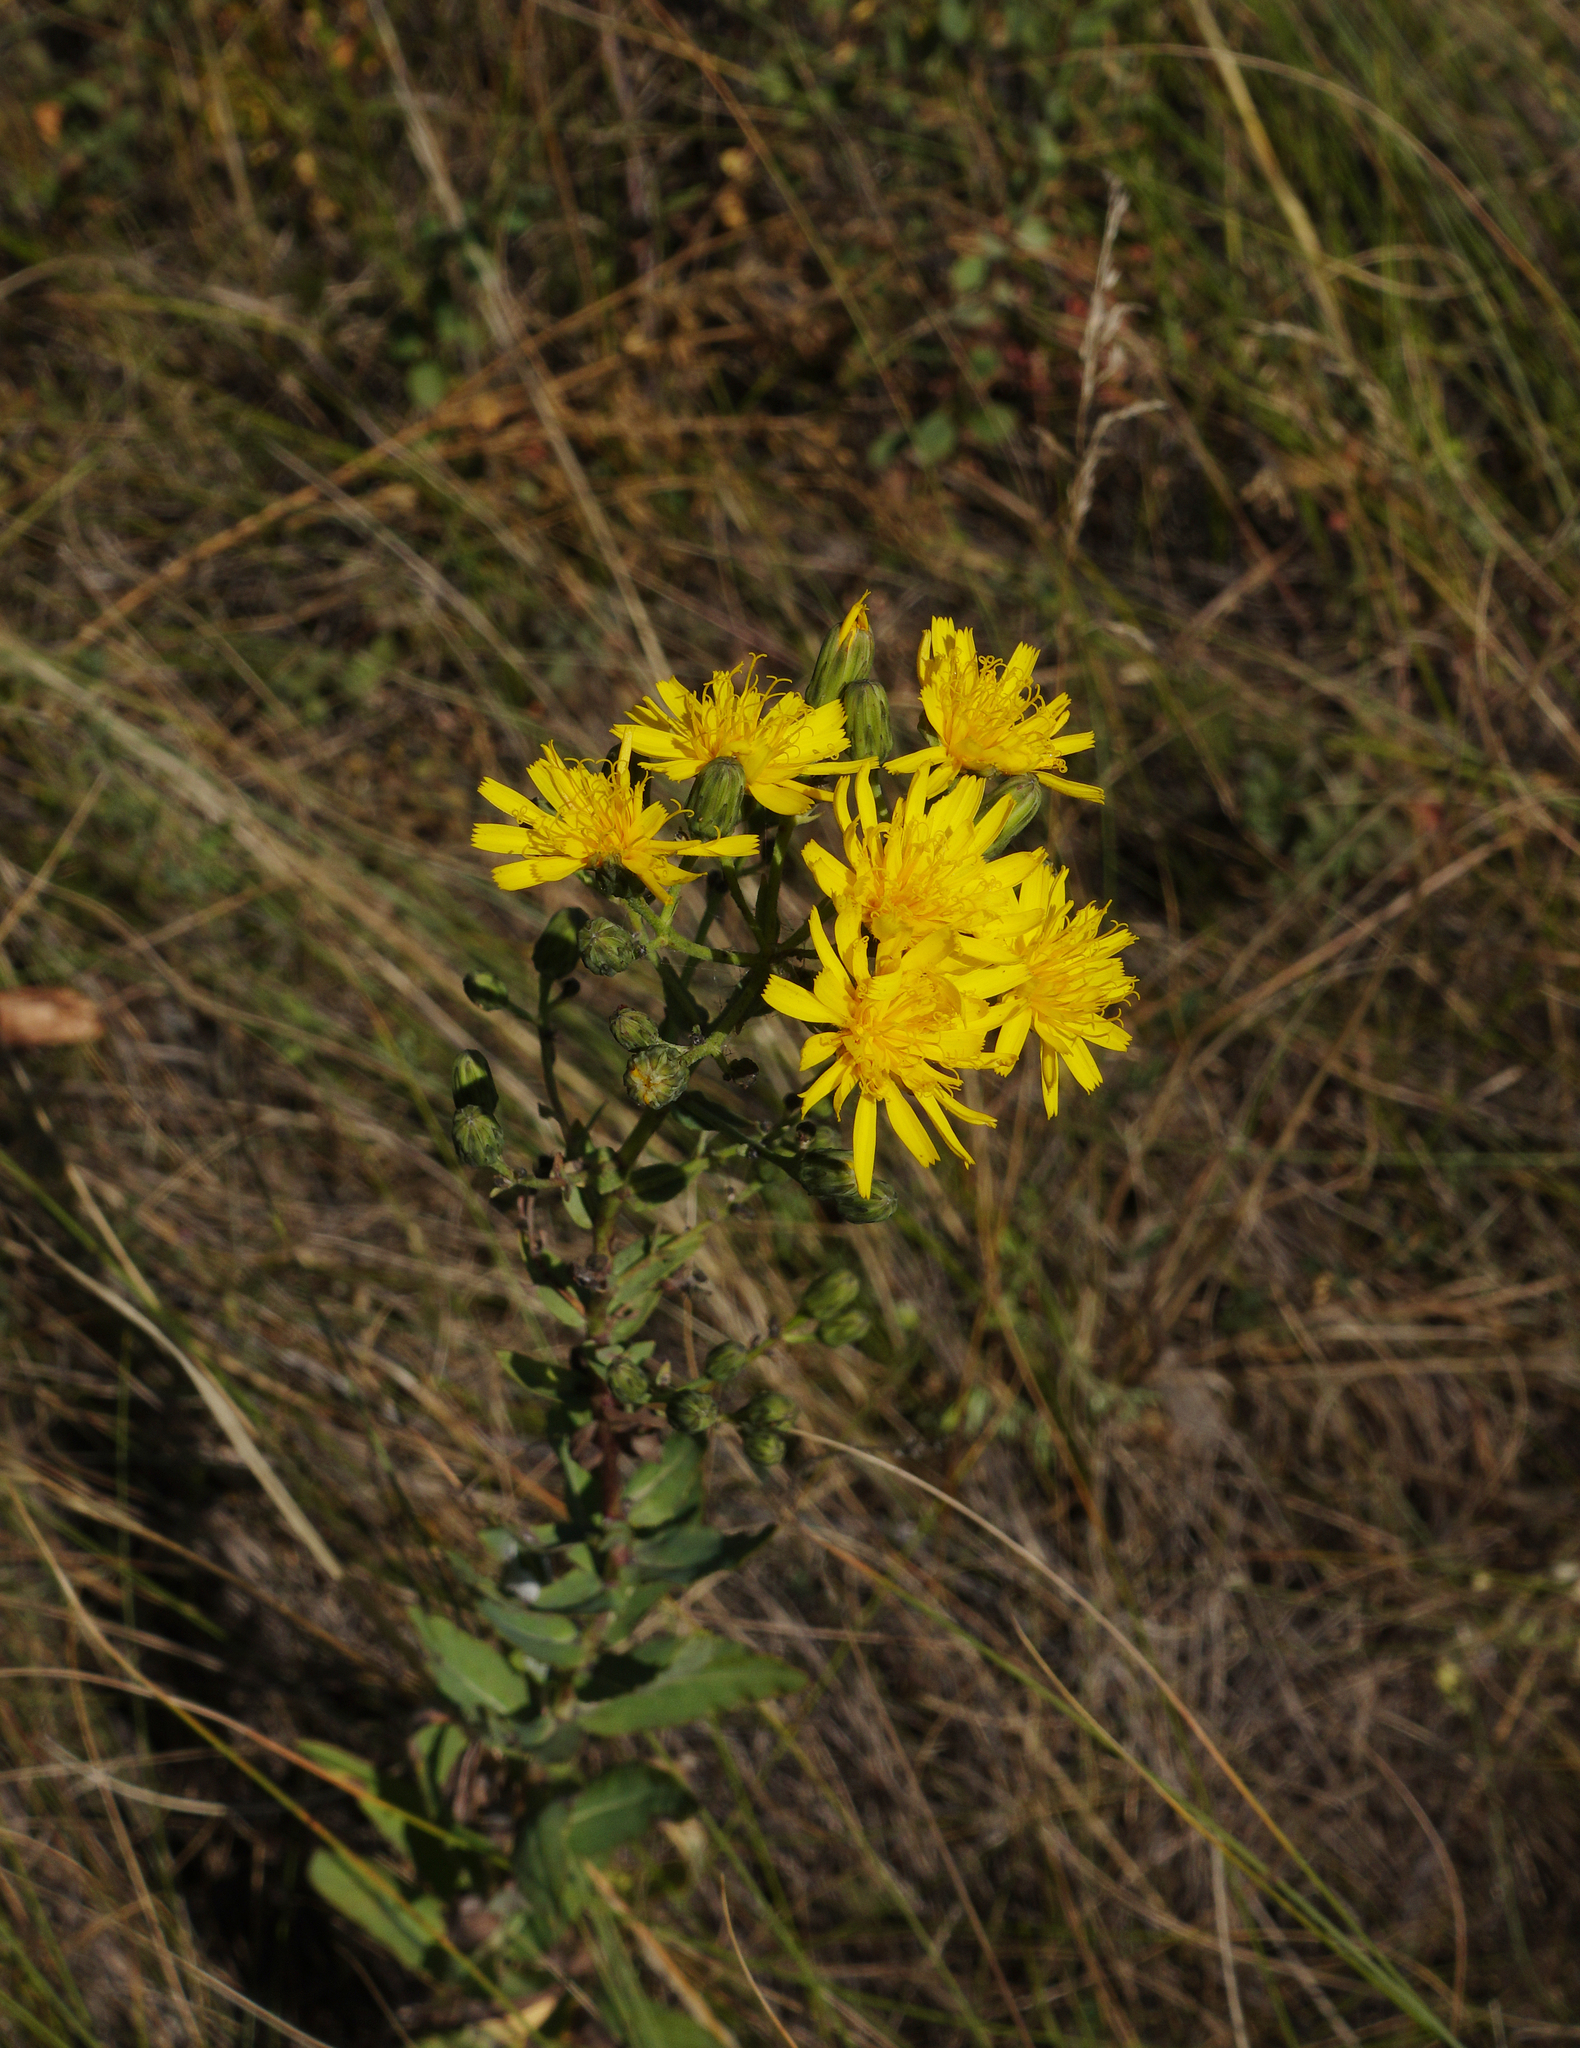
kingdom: Plantae
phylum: Tracheophyta
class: Magnoliopsida
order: Asterales
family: Asteraceae
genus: Hieracium
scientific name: Hieracium virosum
